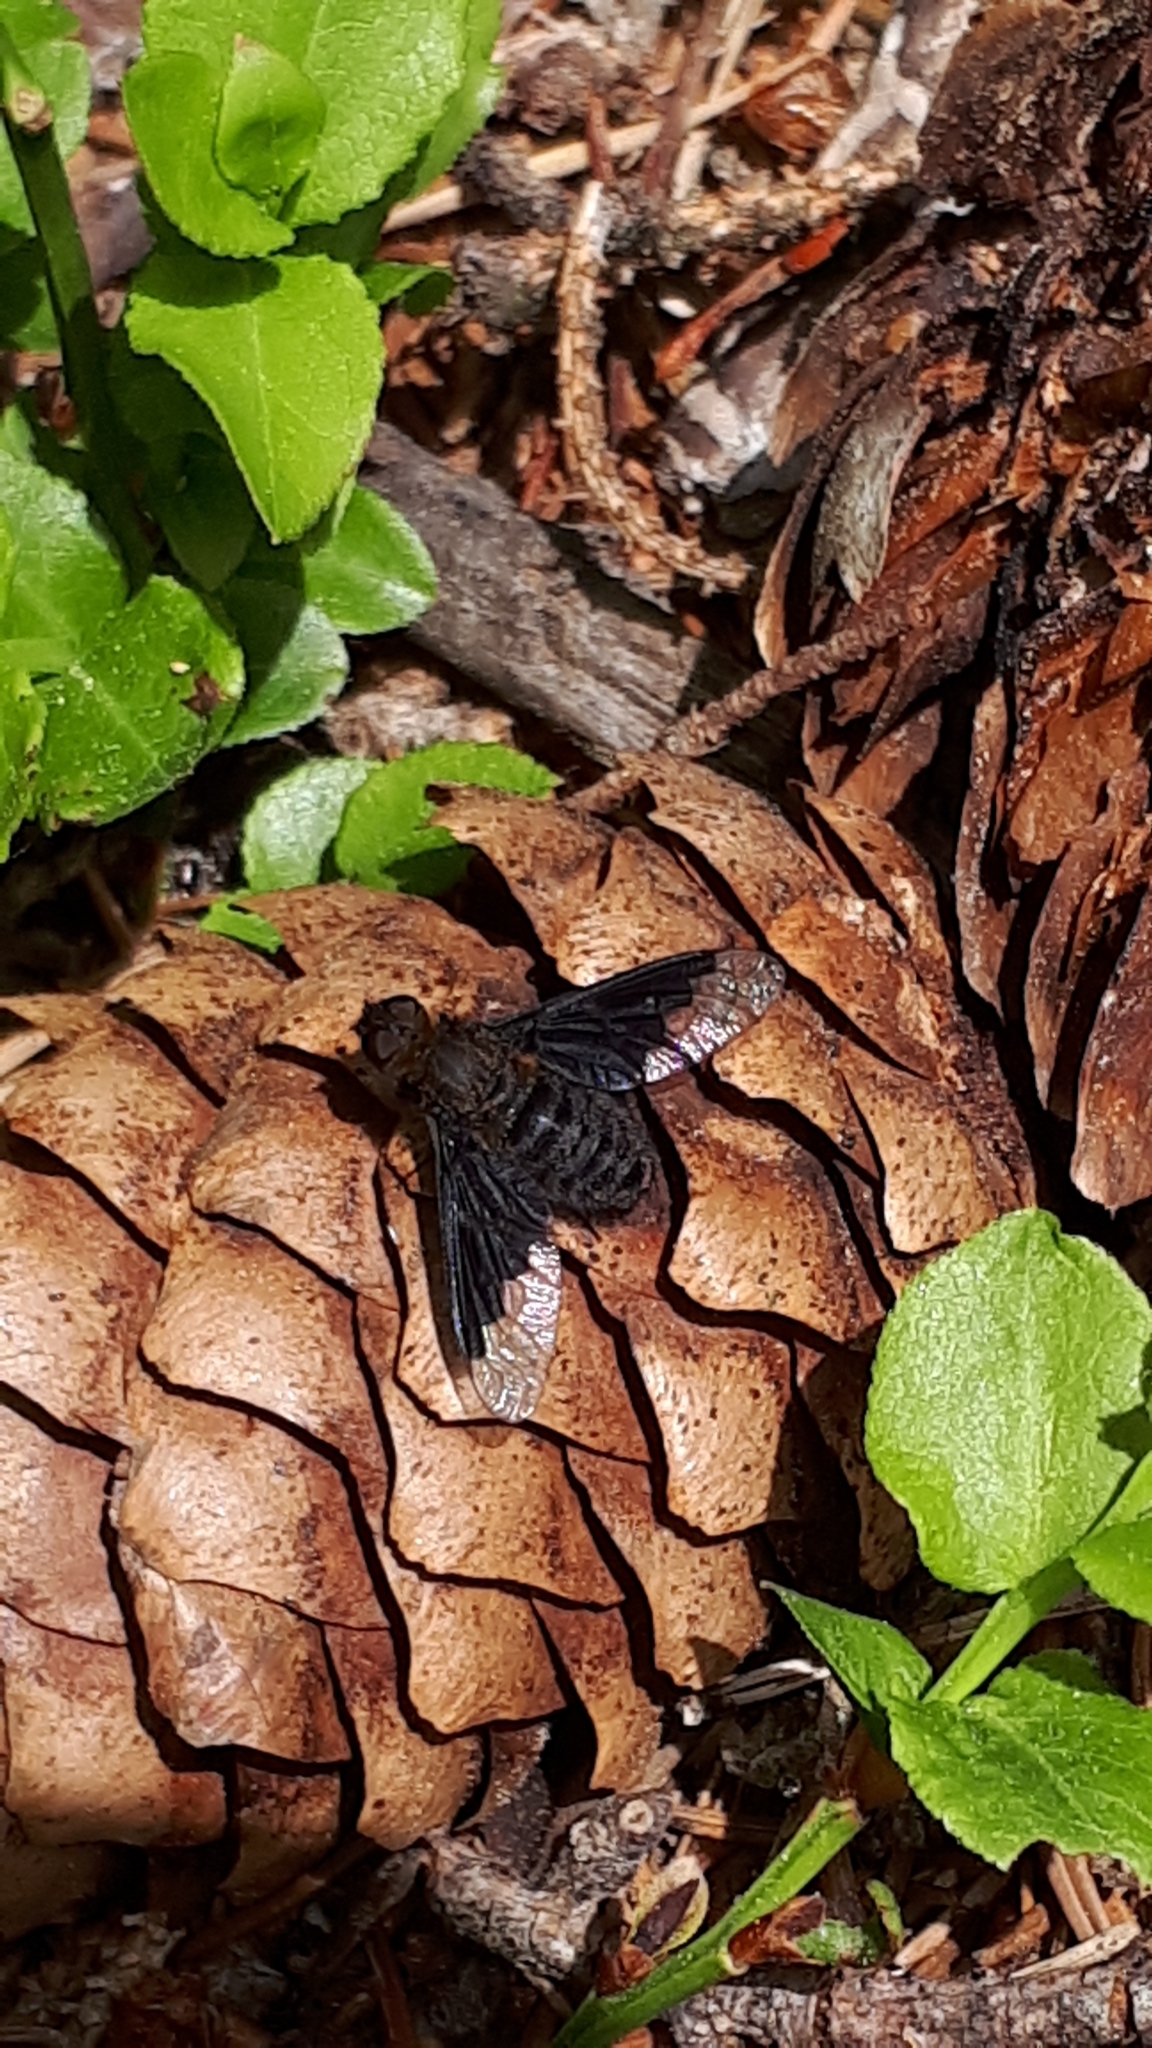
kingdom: Animalia
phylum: Arthropoda
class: Insecta
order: Diptera
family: Bombyliidae
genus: Hemipenthes
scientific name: Hemipenthes morio
